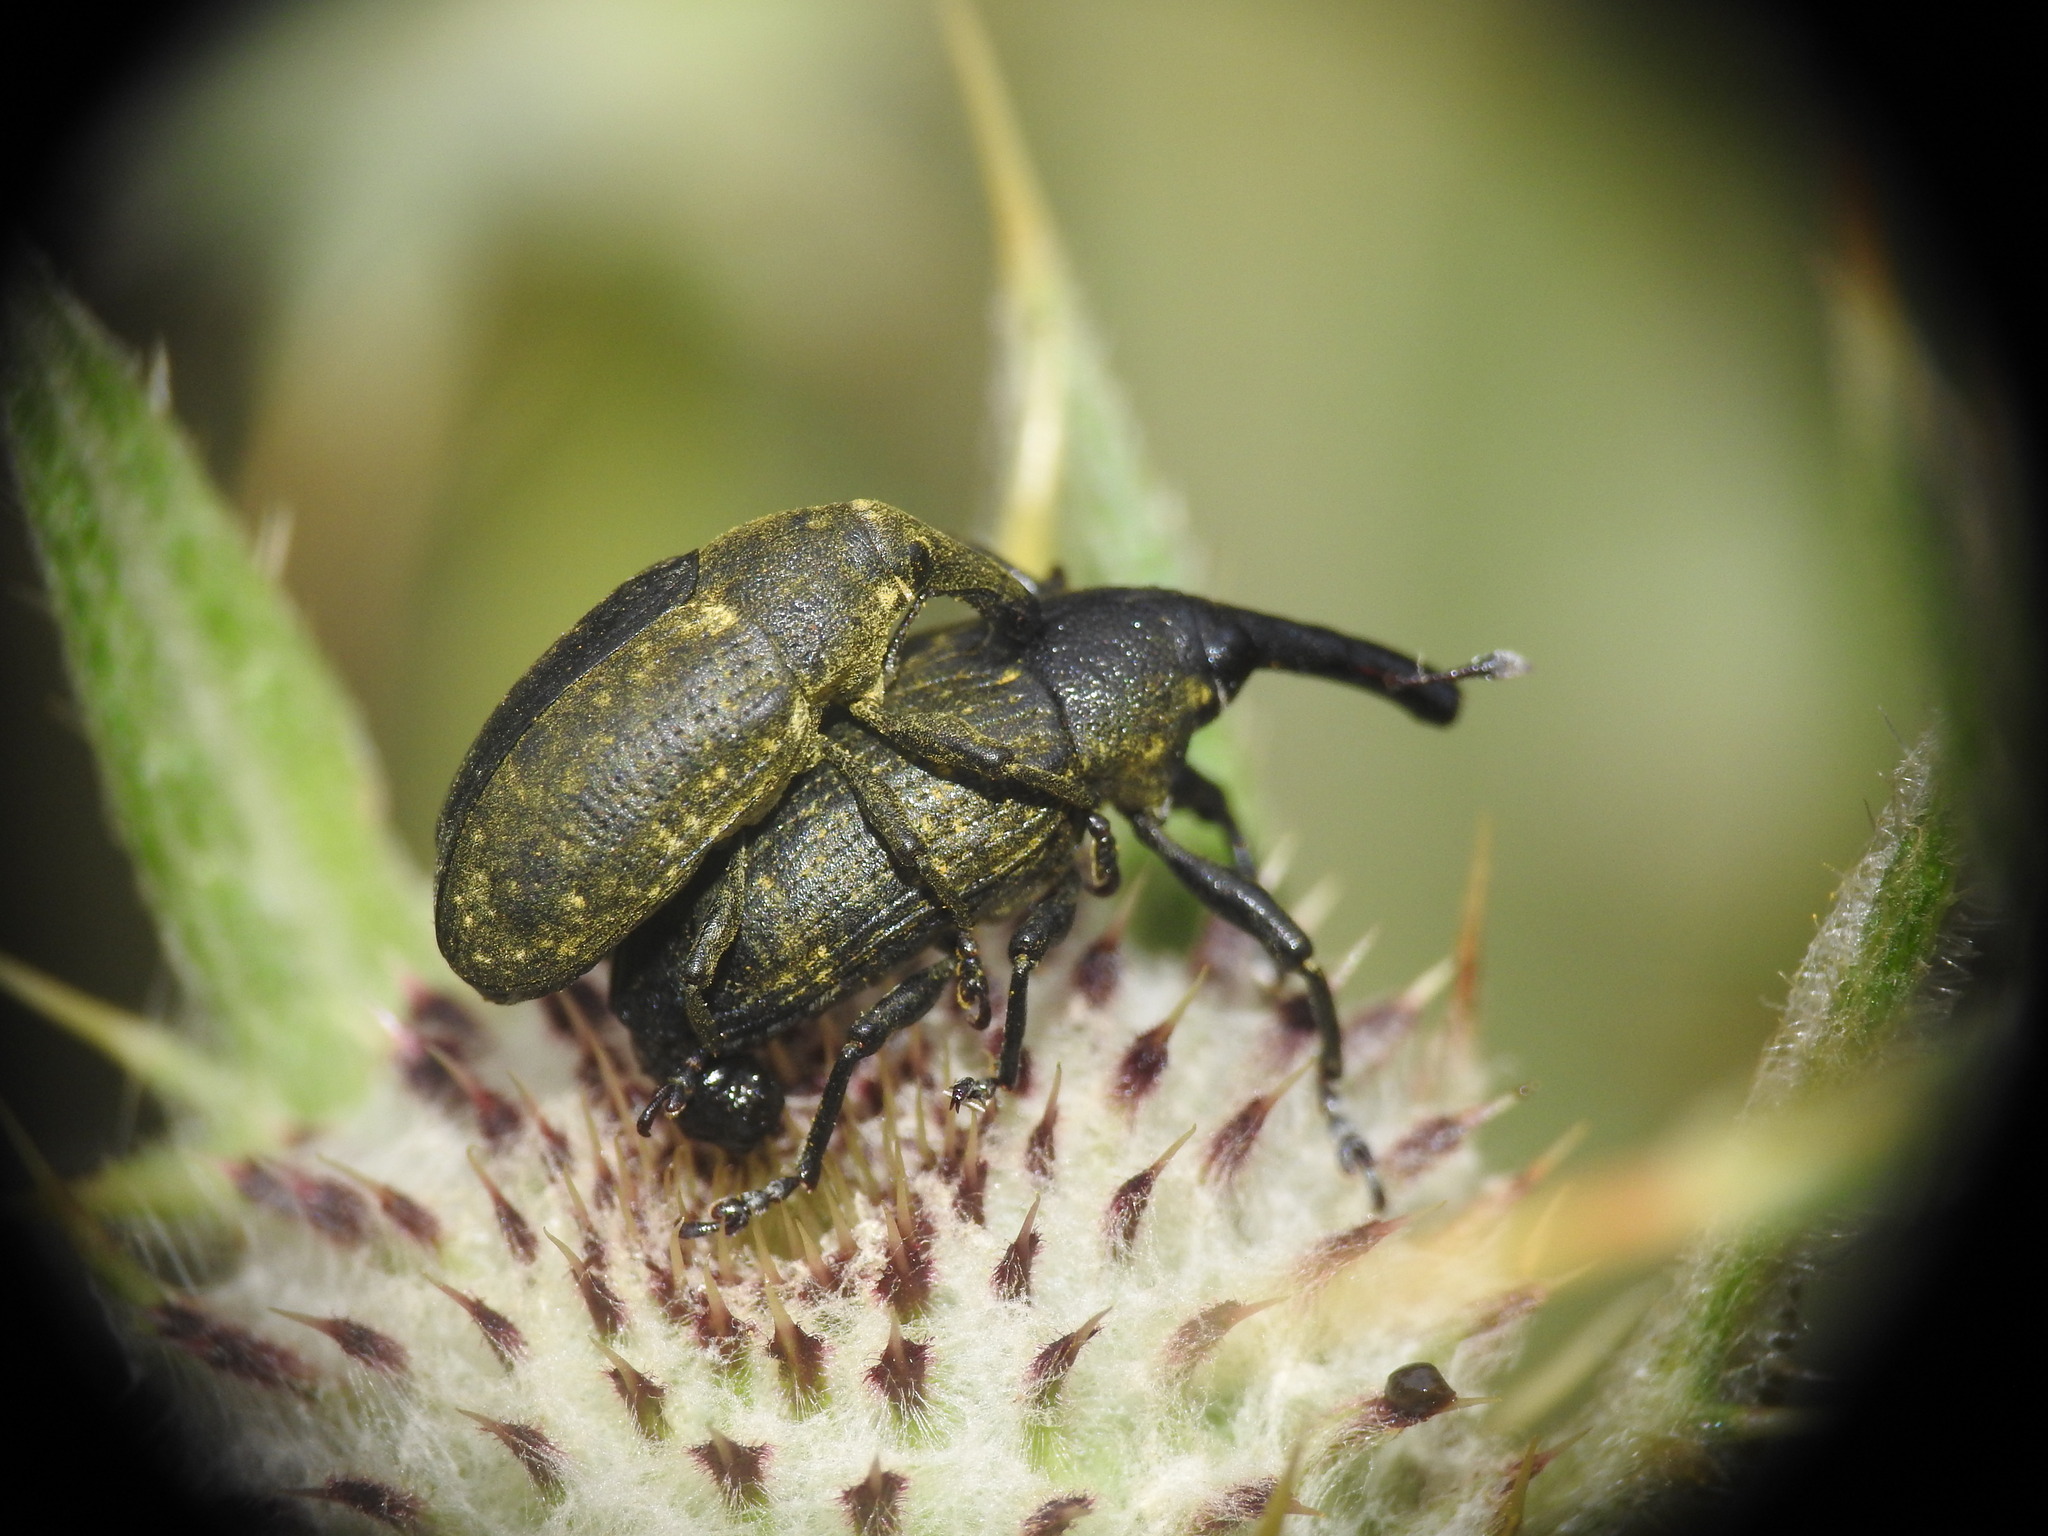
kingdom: Animalia
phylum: Arthropoda
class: Insecta
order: Coleoptera
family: Curculionidae
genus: Larinus
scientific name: Larinus sturnus
